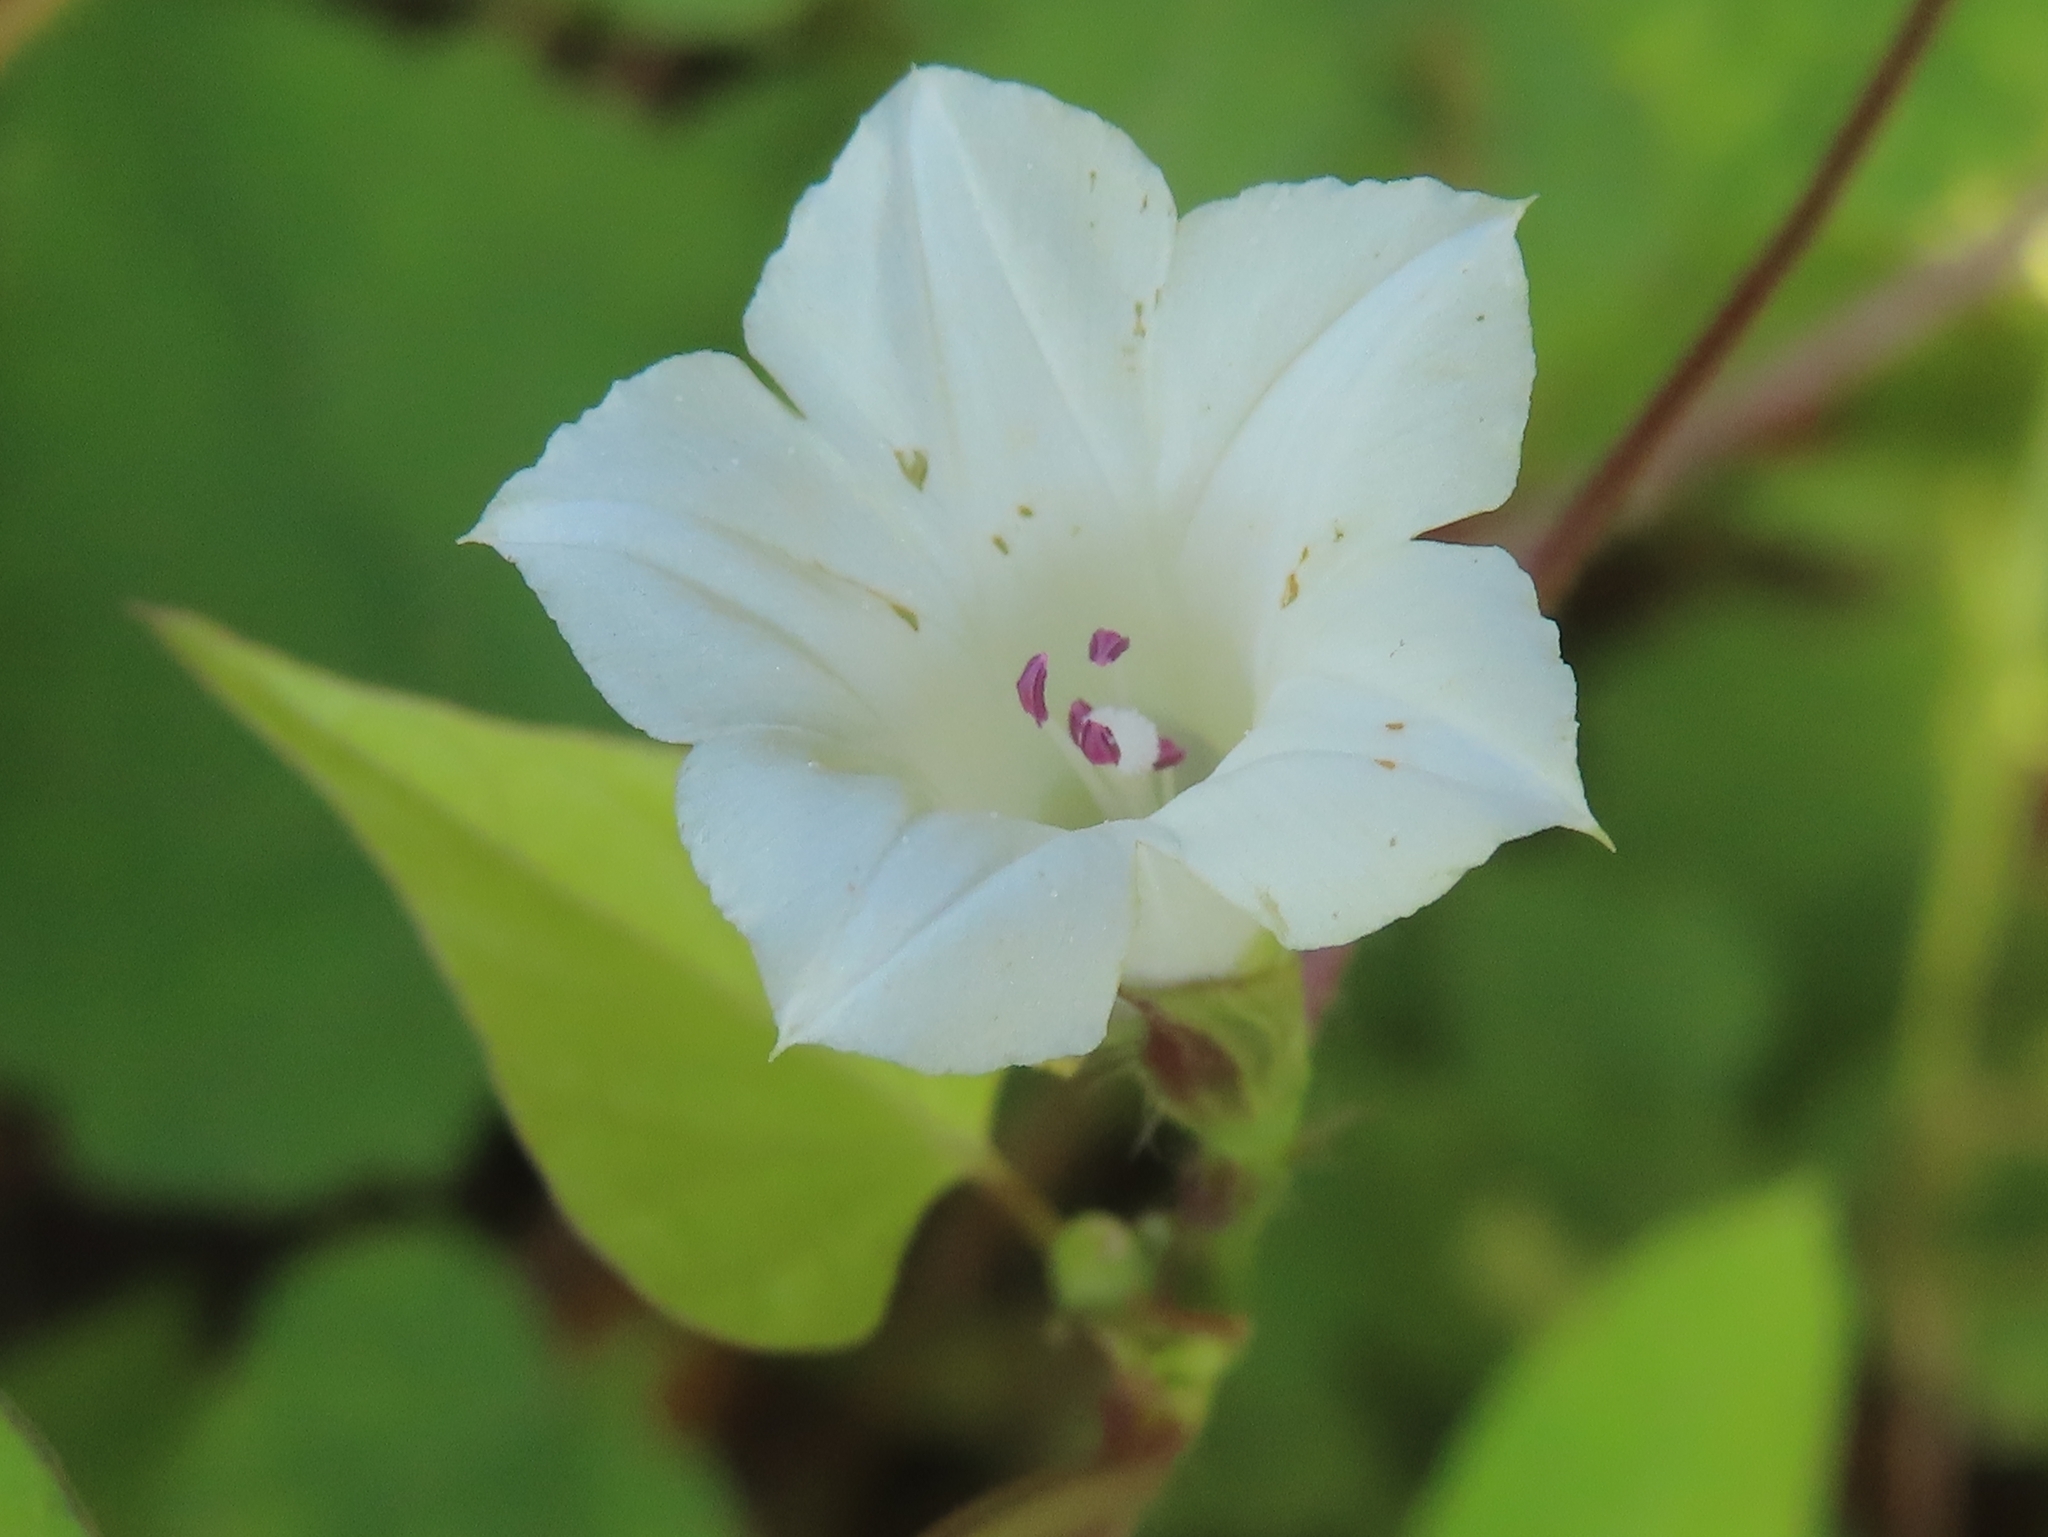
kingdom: Plantae
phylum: Tracheophyta
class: Magnoliopsida
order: Solanales
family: Convolvulaceae
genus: Ipomoea
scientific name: Ipomoea lacunosa
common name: White morning-glory
